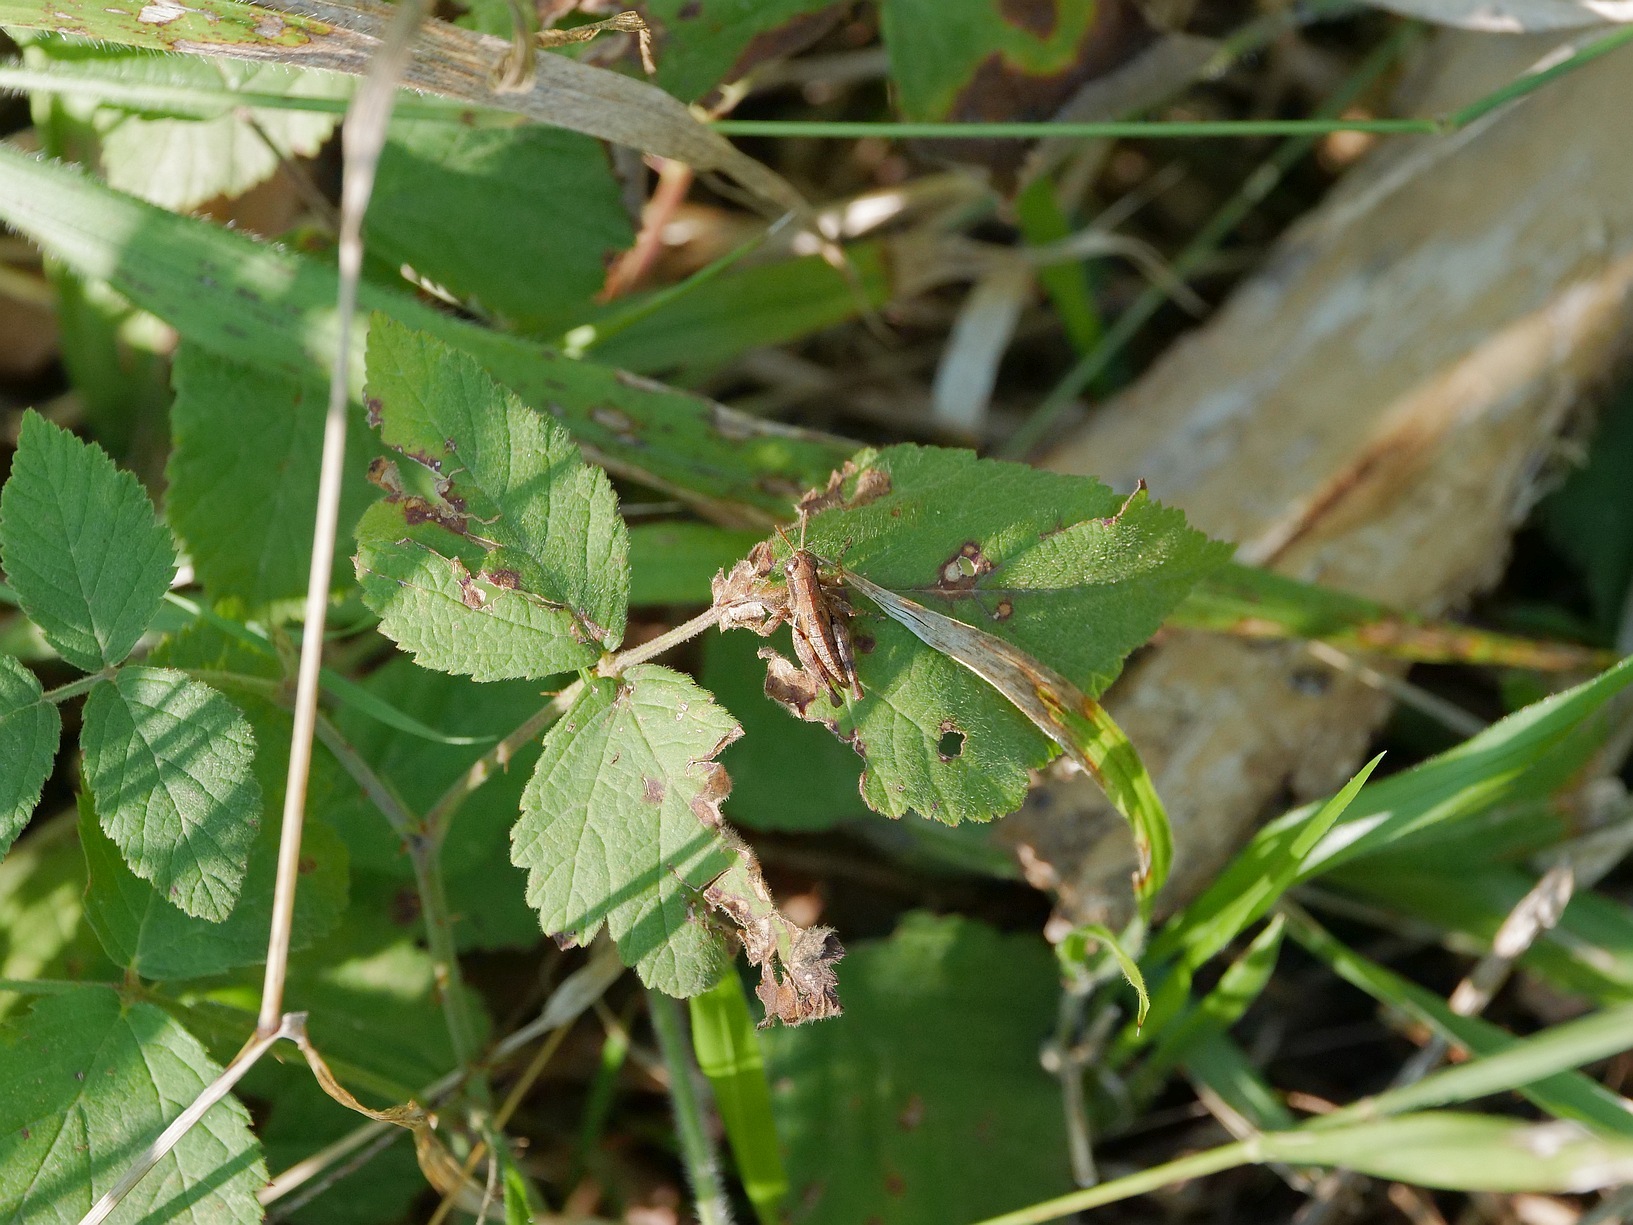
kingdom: Animalia
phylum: Arthropoda
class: Insecta
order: Orthoptera
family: Acrididae
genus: Pezotettix
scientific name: Pezotettix giornae
